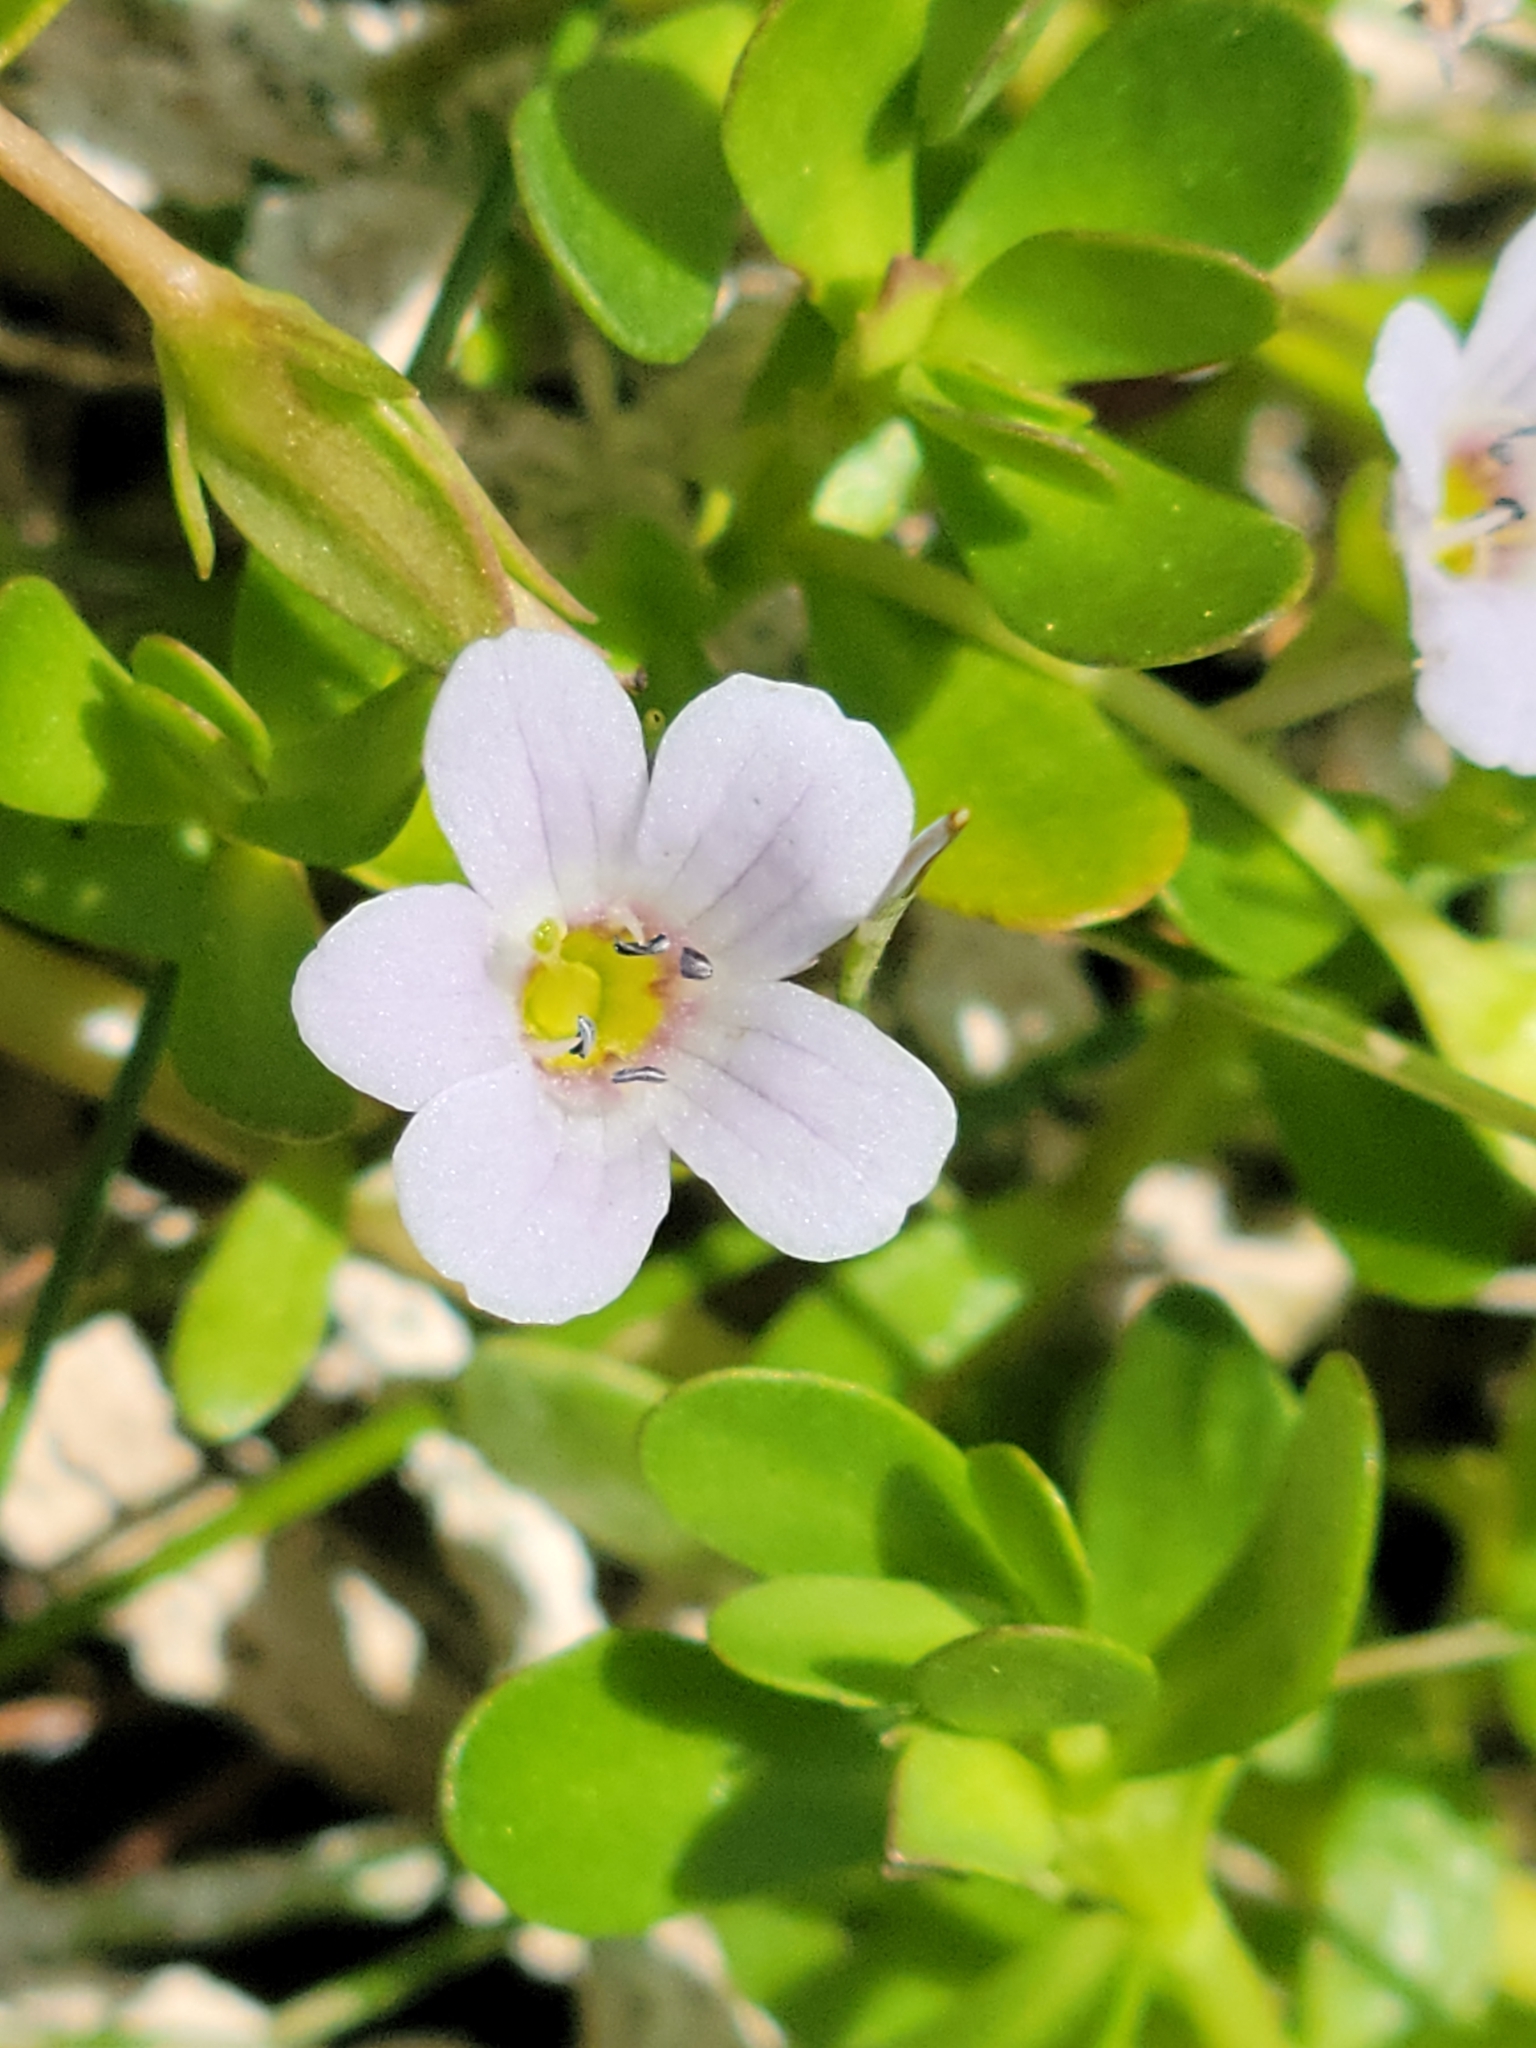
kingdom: Plantae
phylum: Tracheophyta
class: Magnoliopsida
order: Lamiales
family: Plantaginaceae
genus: Bacopa
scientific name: Bacopa monnieri
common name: Indian-pennywort
